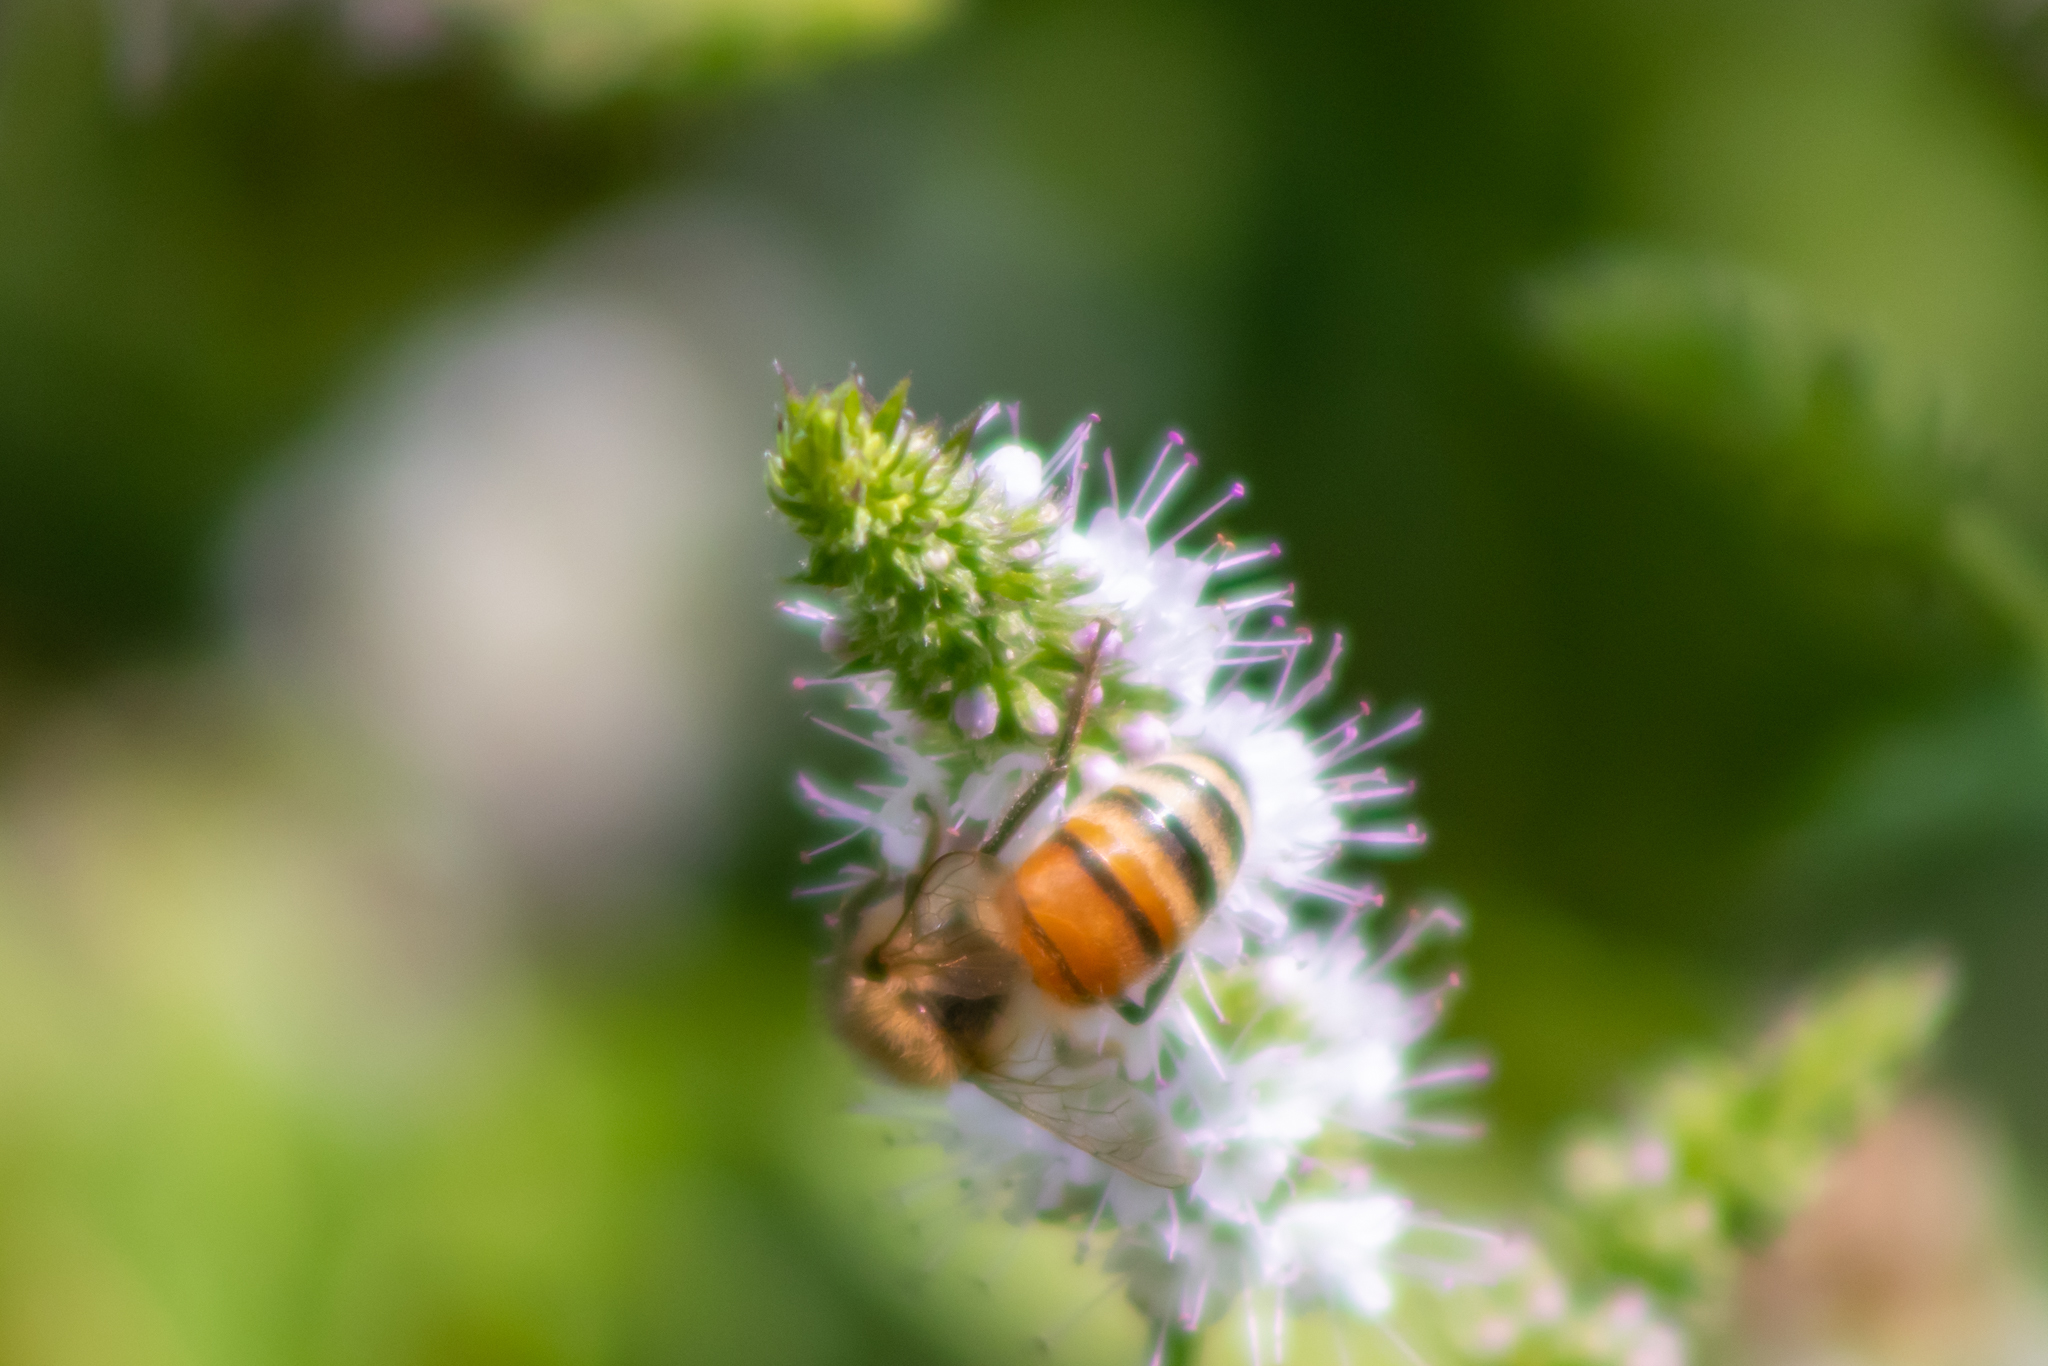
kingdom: Animalia
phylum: Arthropoda
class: Insecta
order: Hymenoptera
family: Apidae
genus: Apis
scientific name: Apis mellifera
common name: Honey bee
